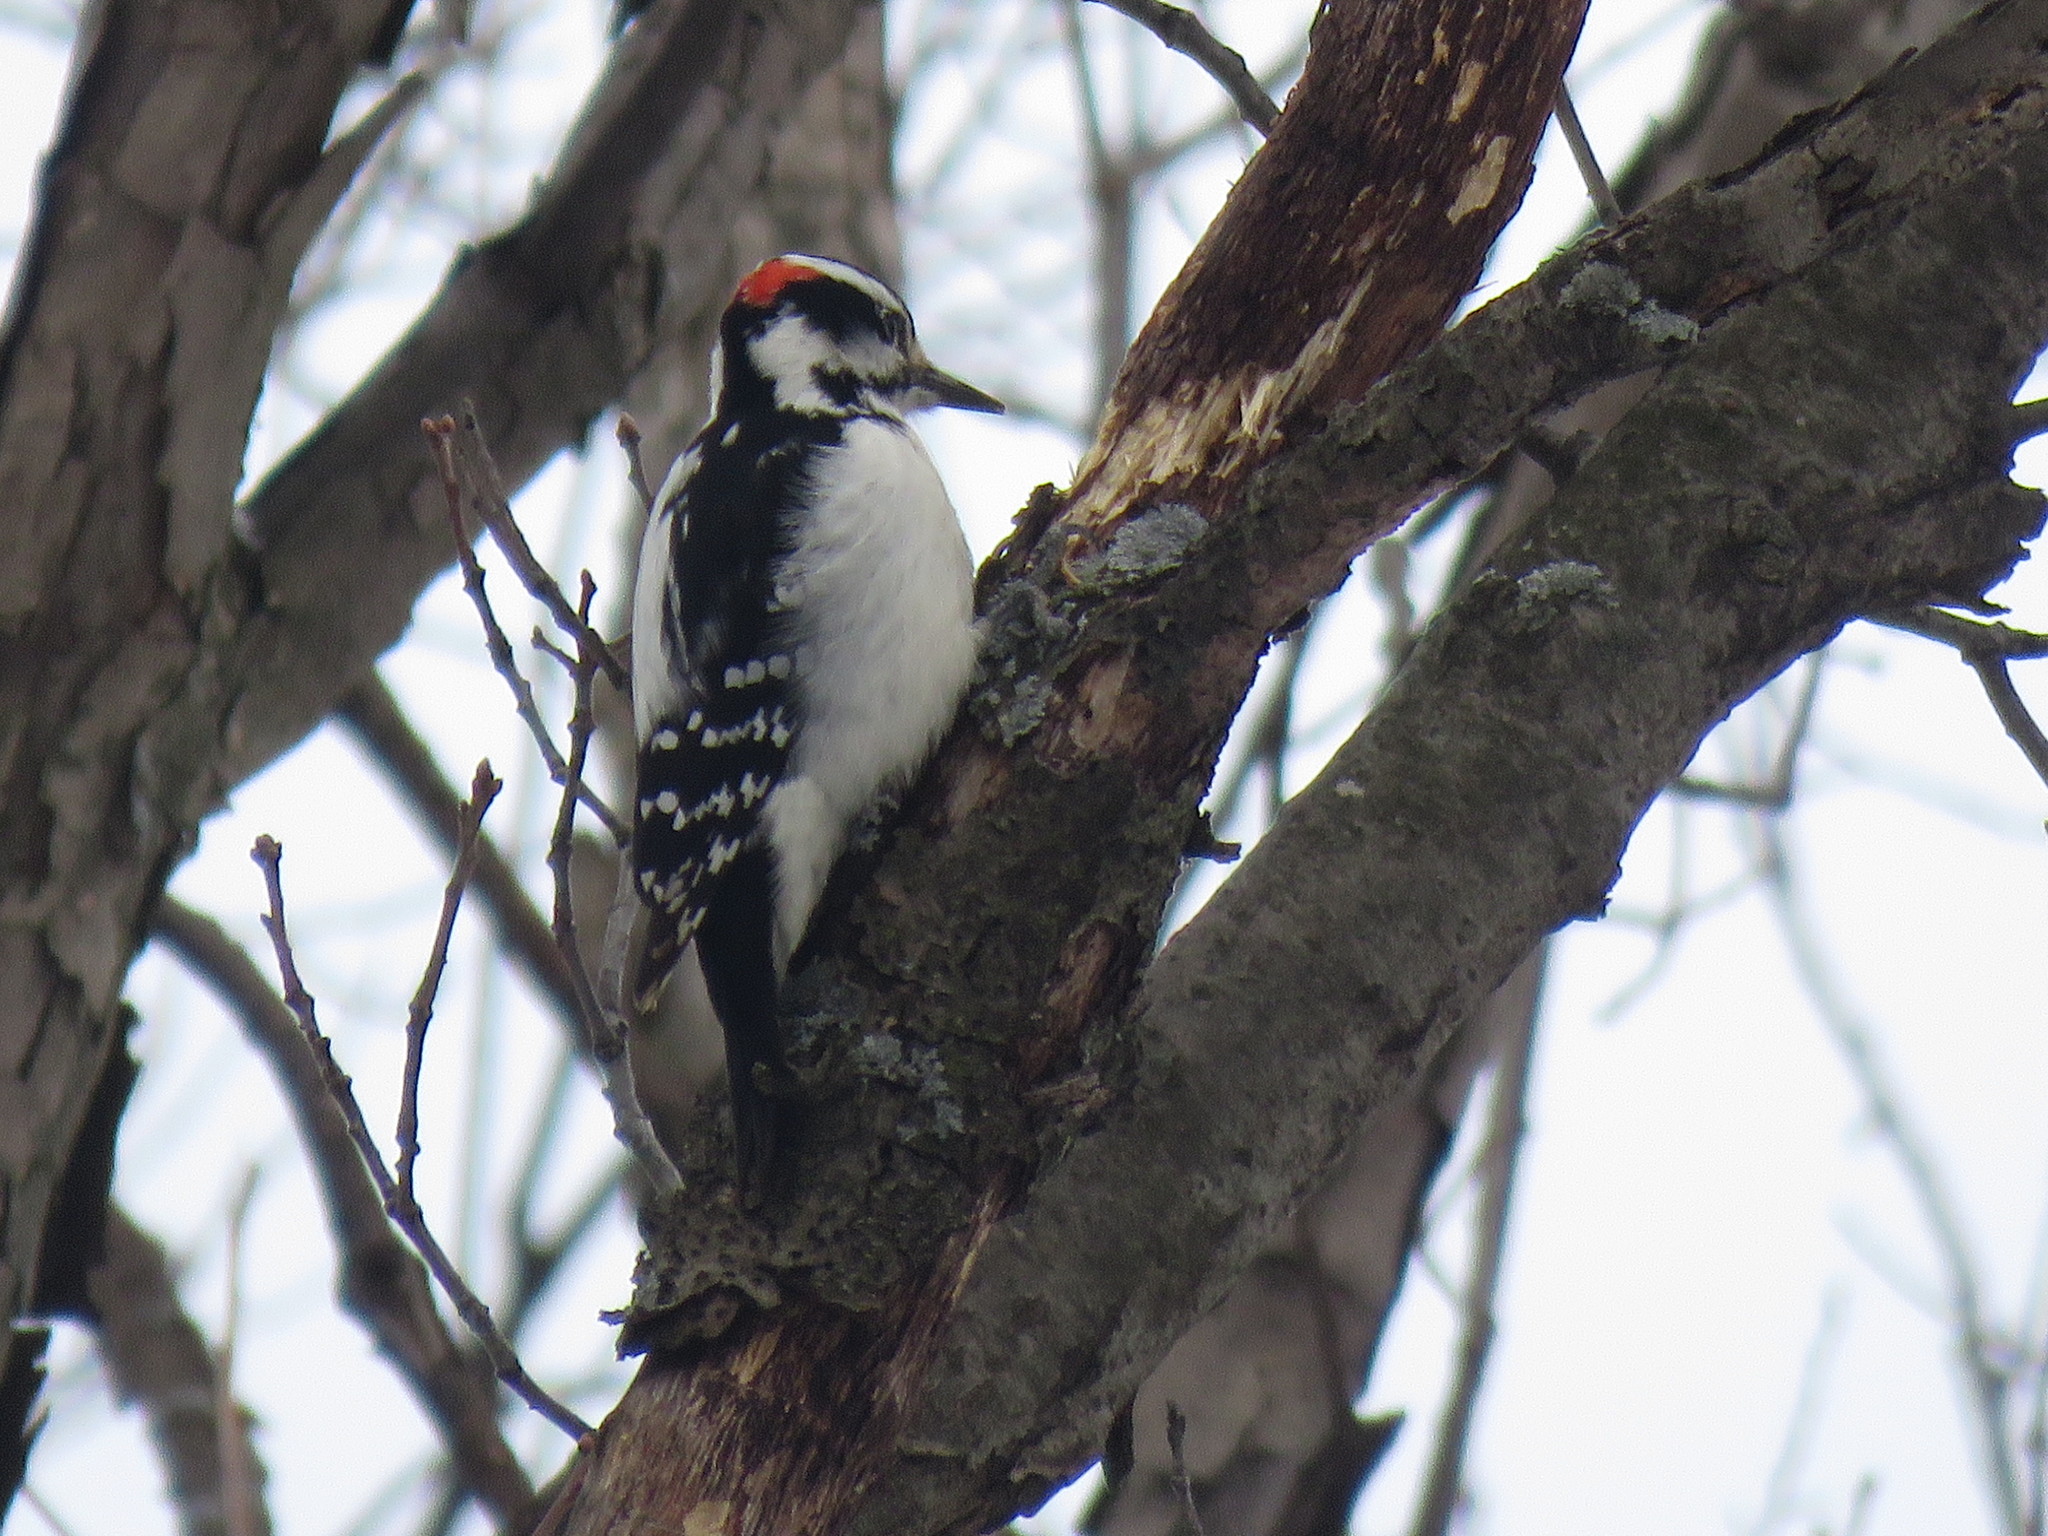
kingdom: Animalia
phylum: Chordata
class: Aves
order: Piciformes
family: Picidae
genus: Leuconotopicus
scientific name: Leuconotopicus villosus
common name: Hairy woodpecker
